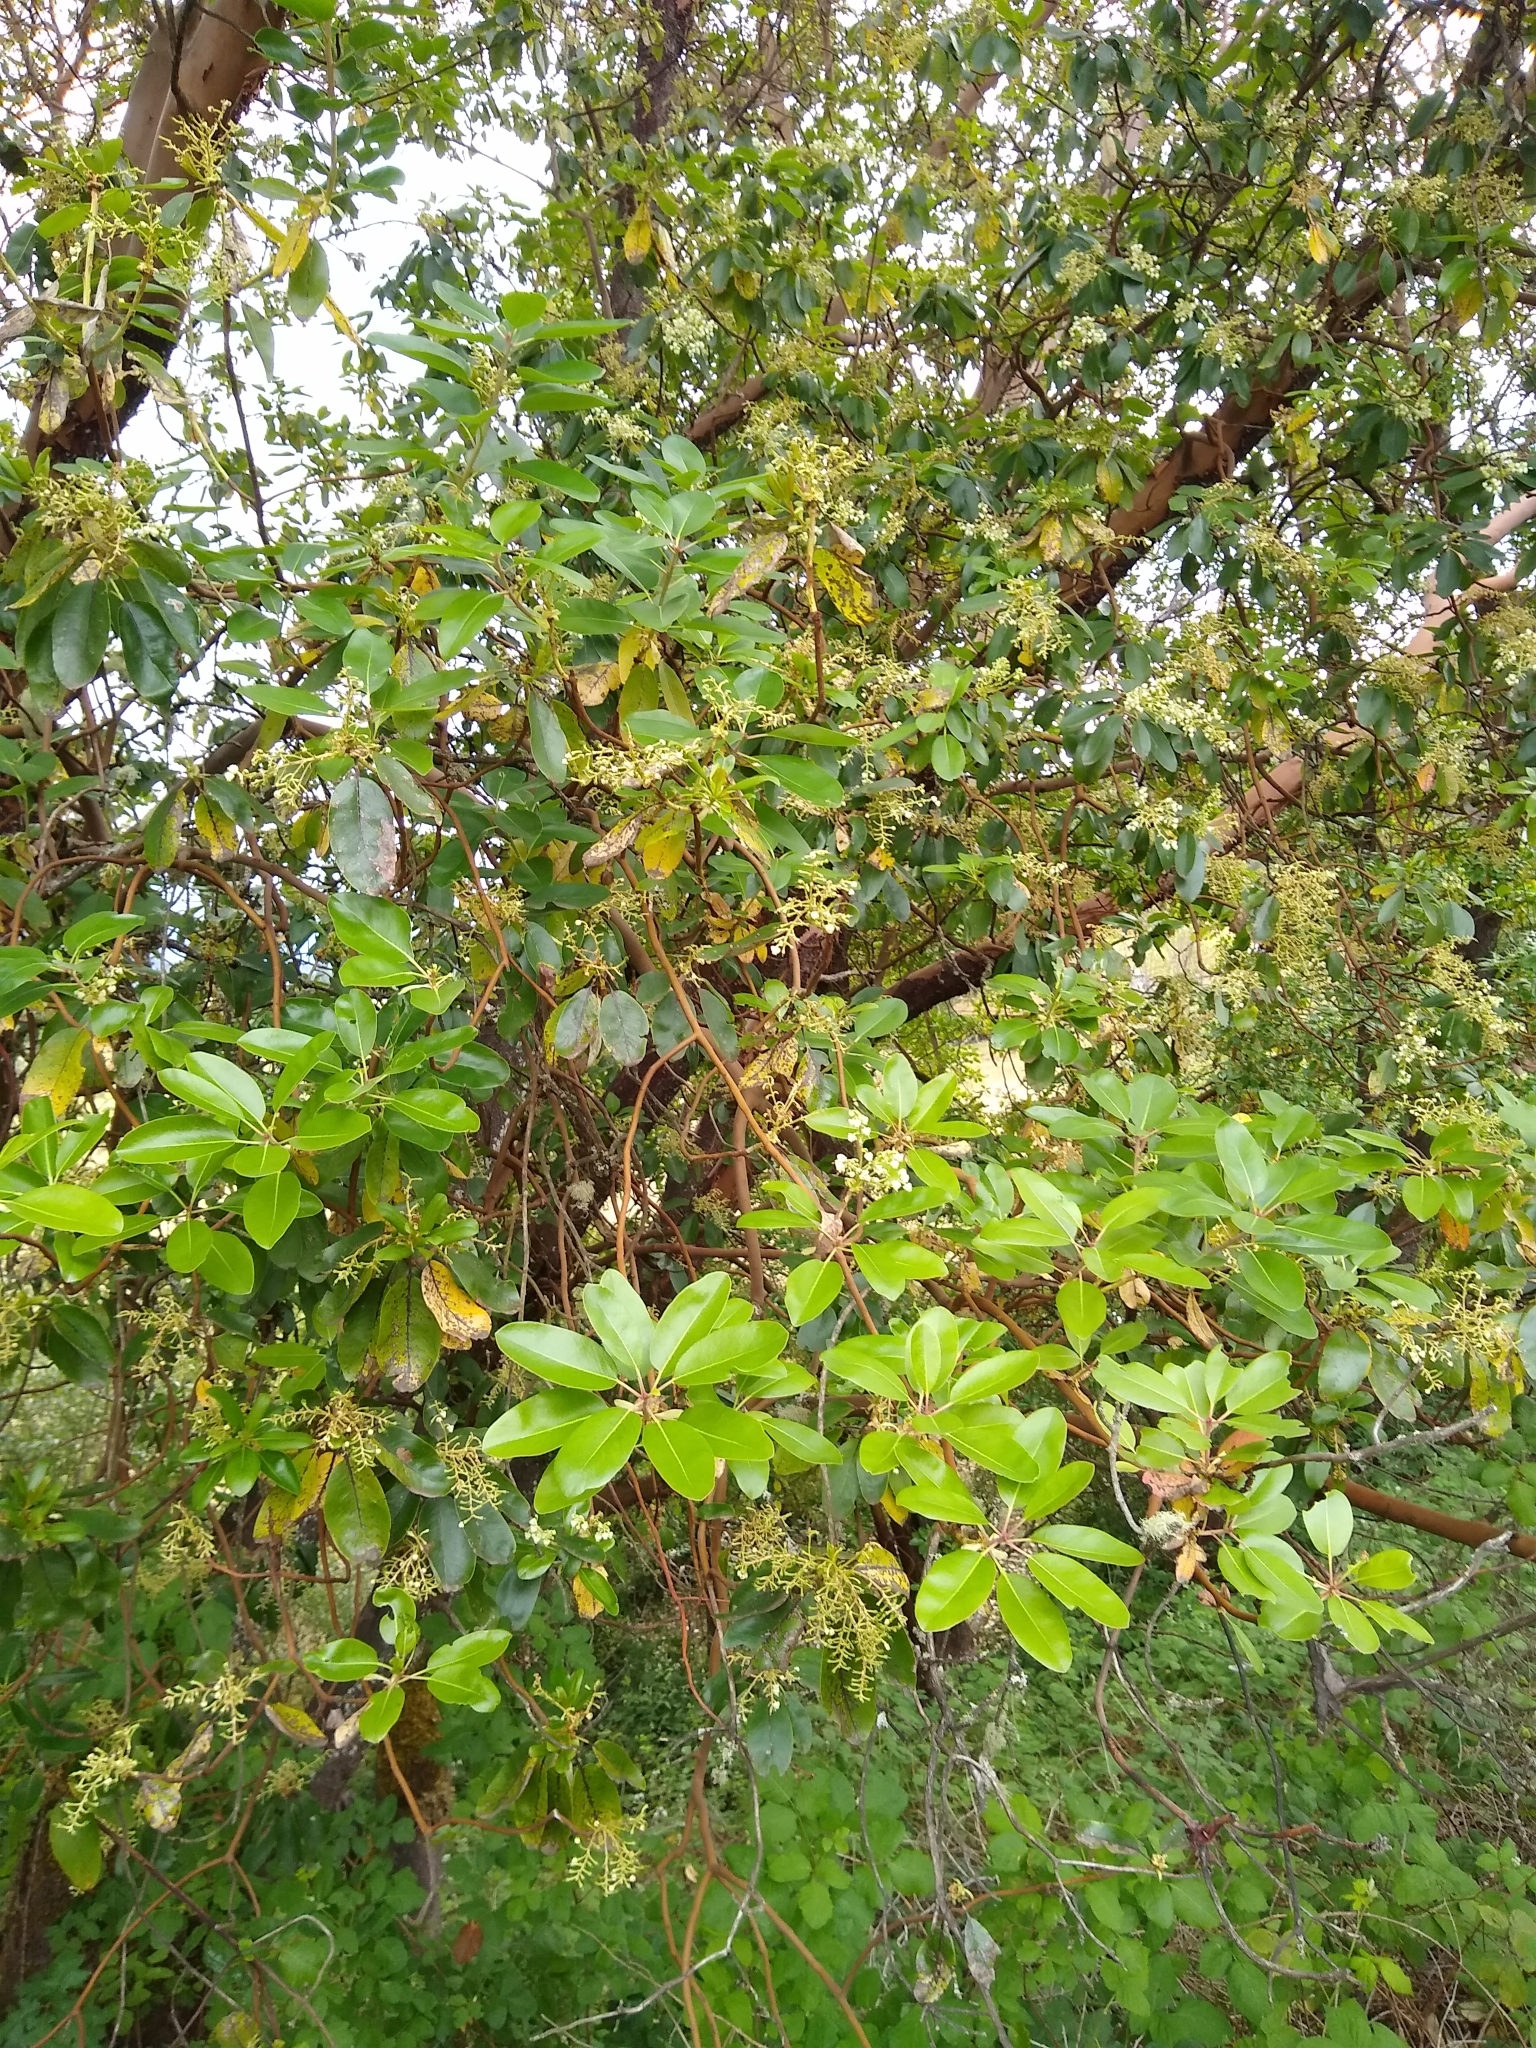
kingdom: Plantae
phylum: Tracheophyta
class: Magnoliopsida
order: Ericales
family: Ericaceae
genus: Arbutus
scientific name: Arbutus menziesii
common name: Pacific madrone
